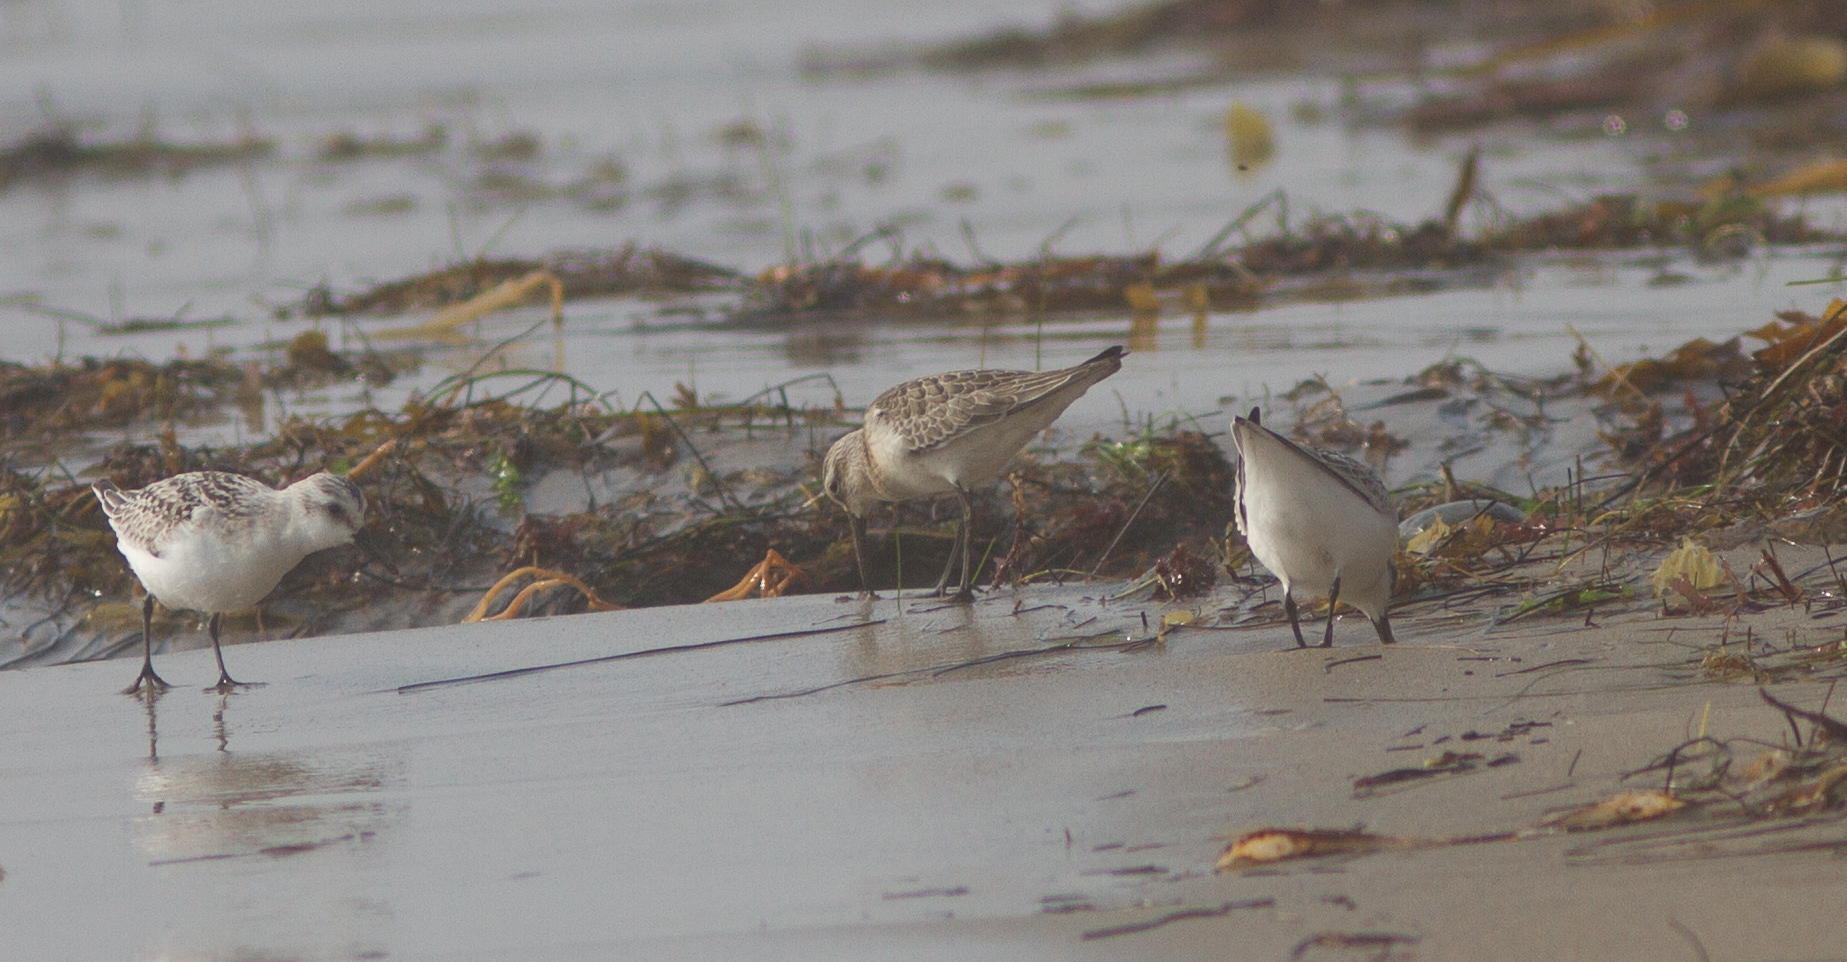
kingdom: Animalia
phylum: Chordata
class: Aves
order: Charadriiformes
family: Scolopacidae
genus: Calidris
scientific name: Calidris ferruginea
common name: Curlew sandpiper
